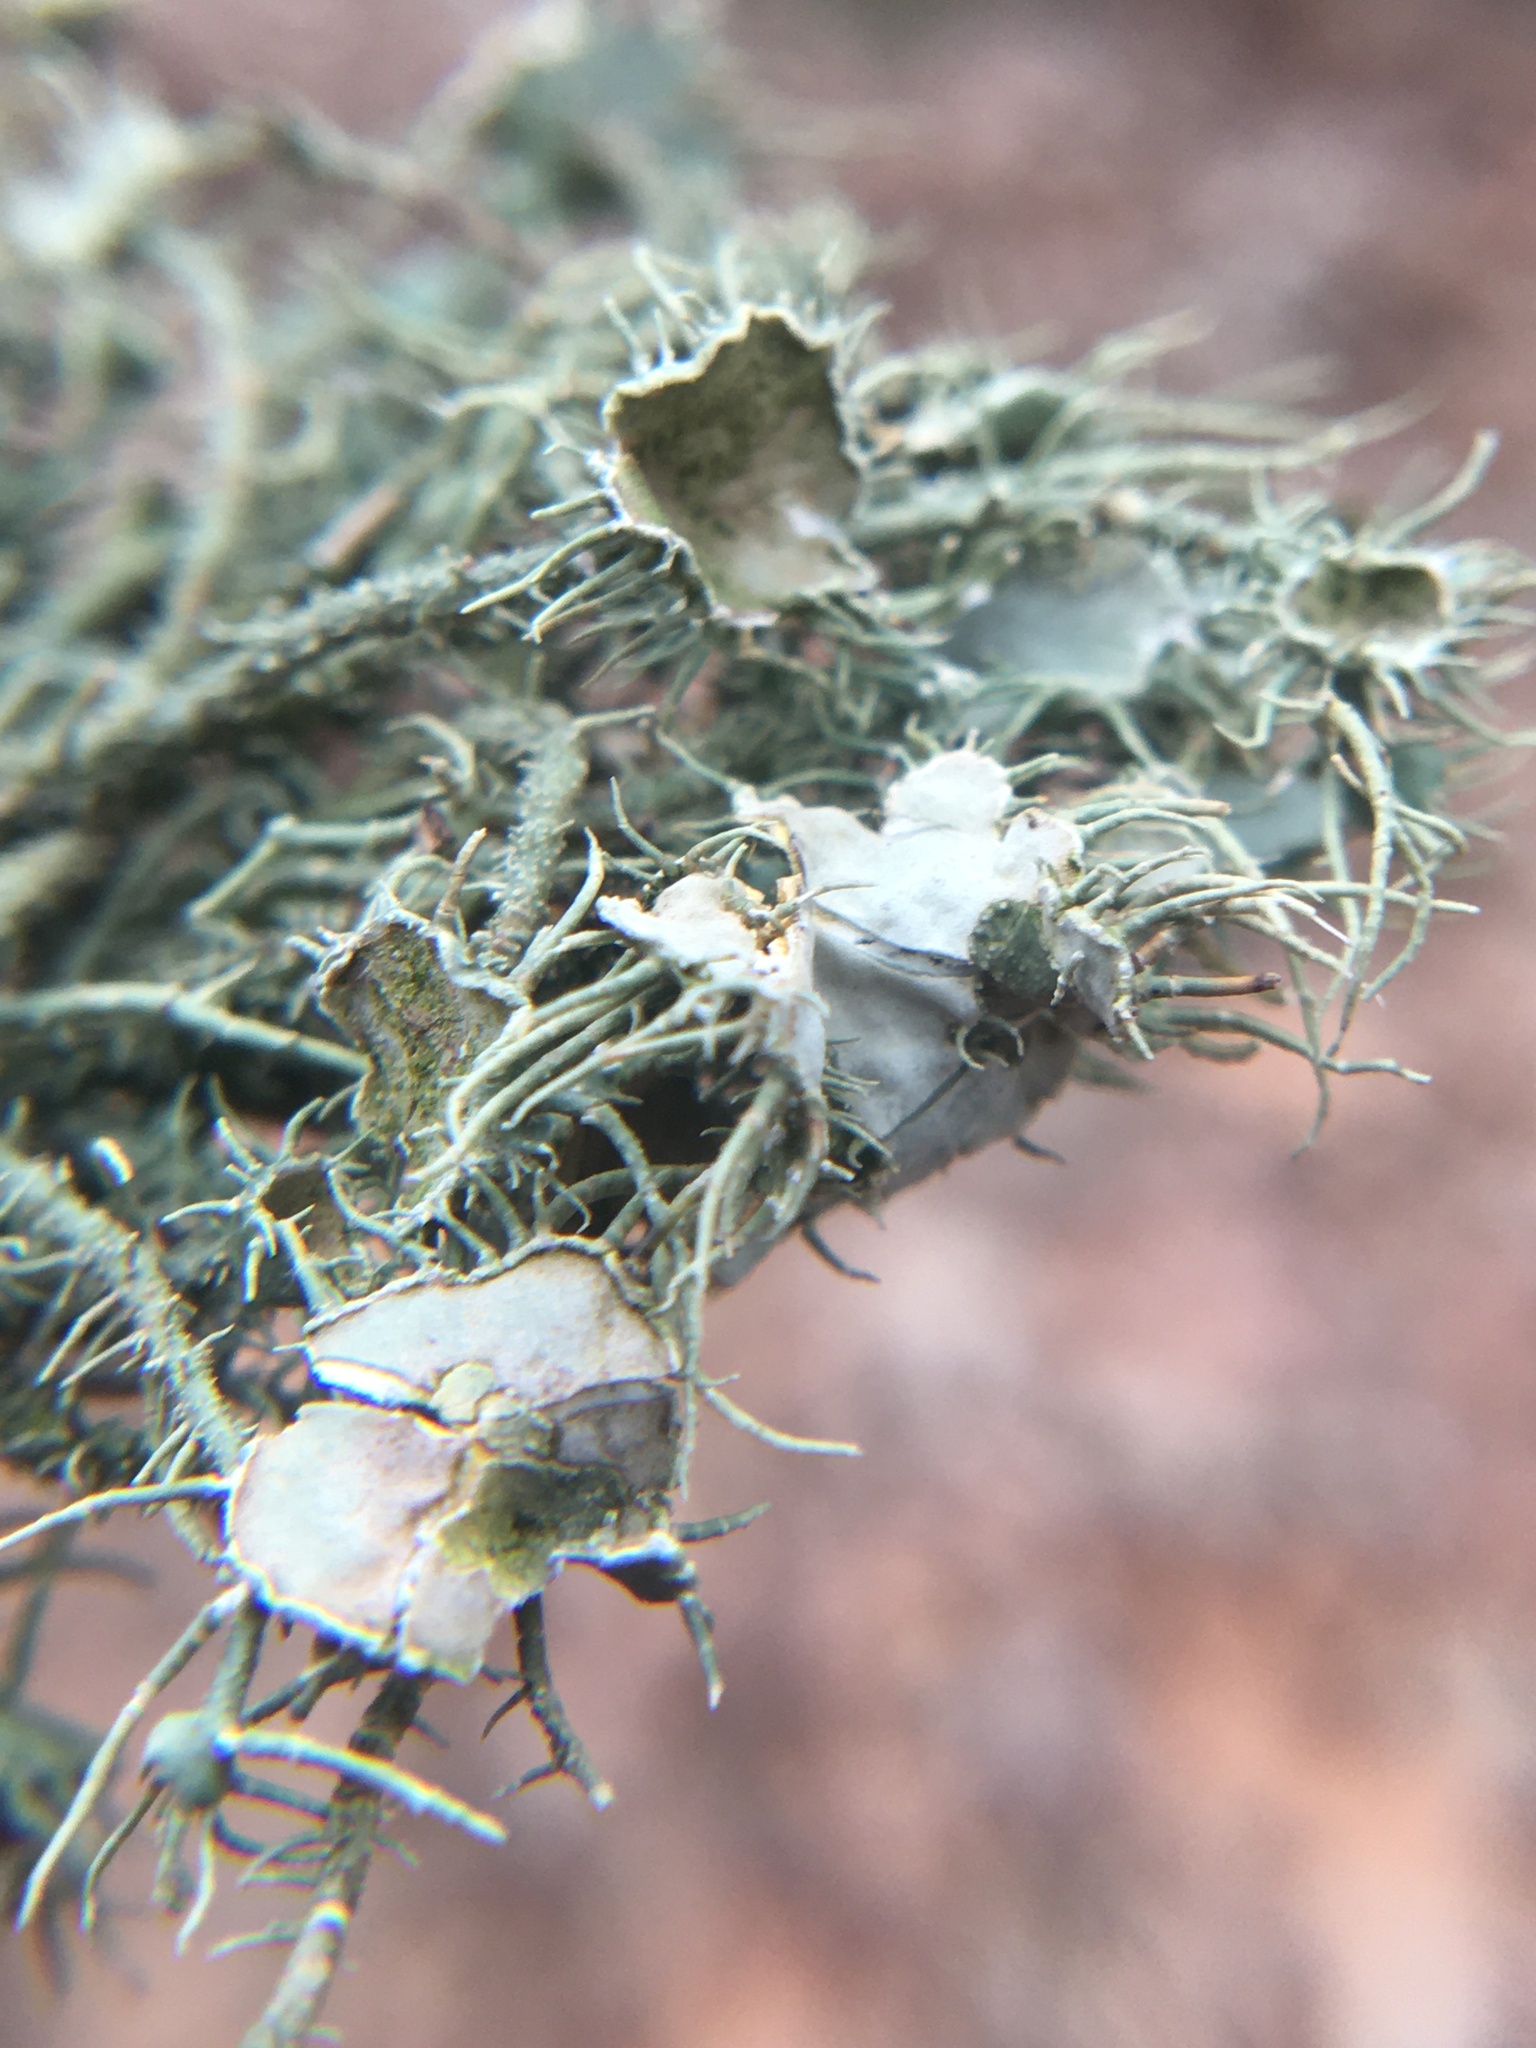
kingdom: Fungi
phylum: Ascomycota
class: Lecanoromycetes
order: Lecanorales
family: Parmeliaceae
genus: Usnea
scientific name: Usnea strigosa
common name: Bushy beard lichen
